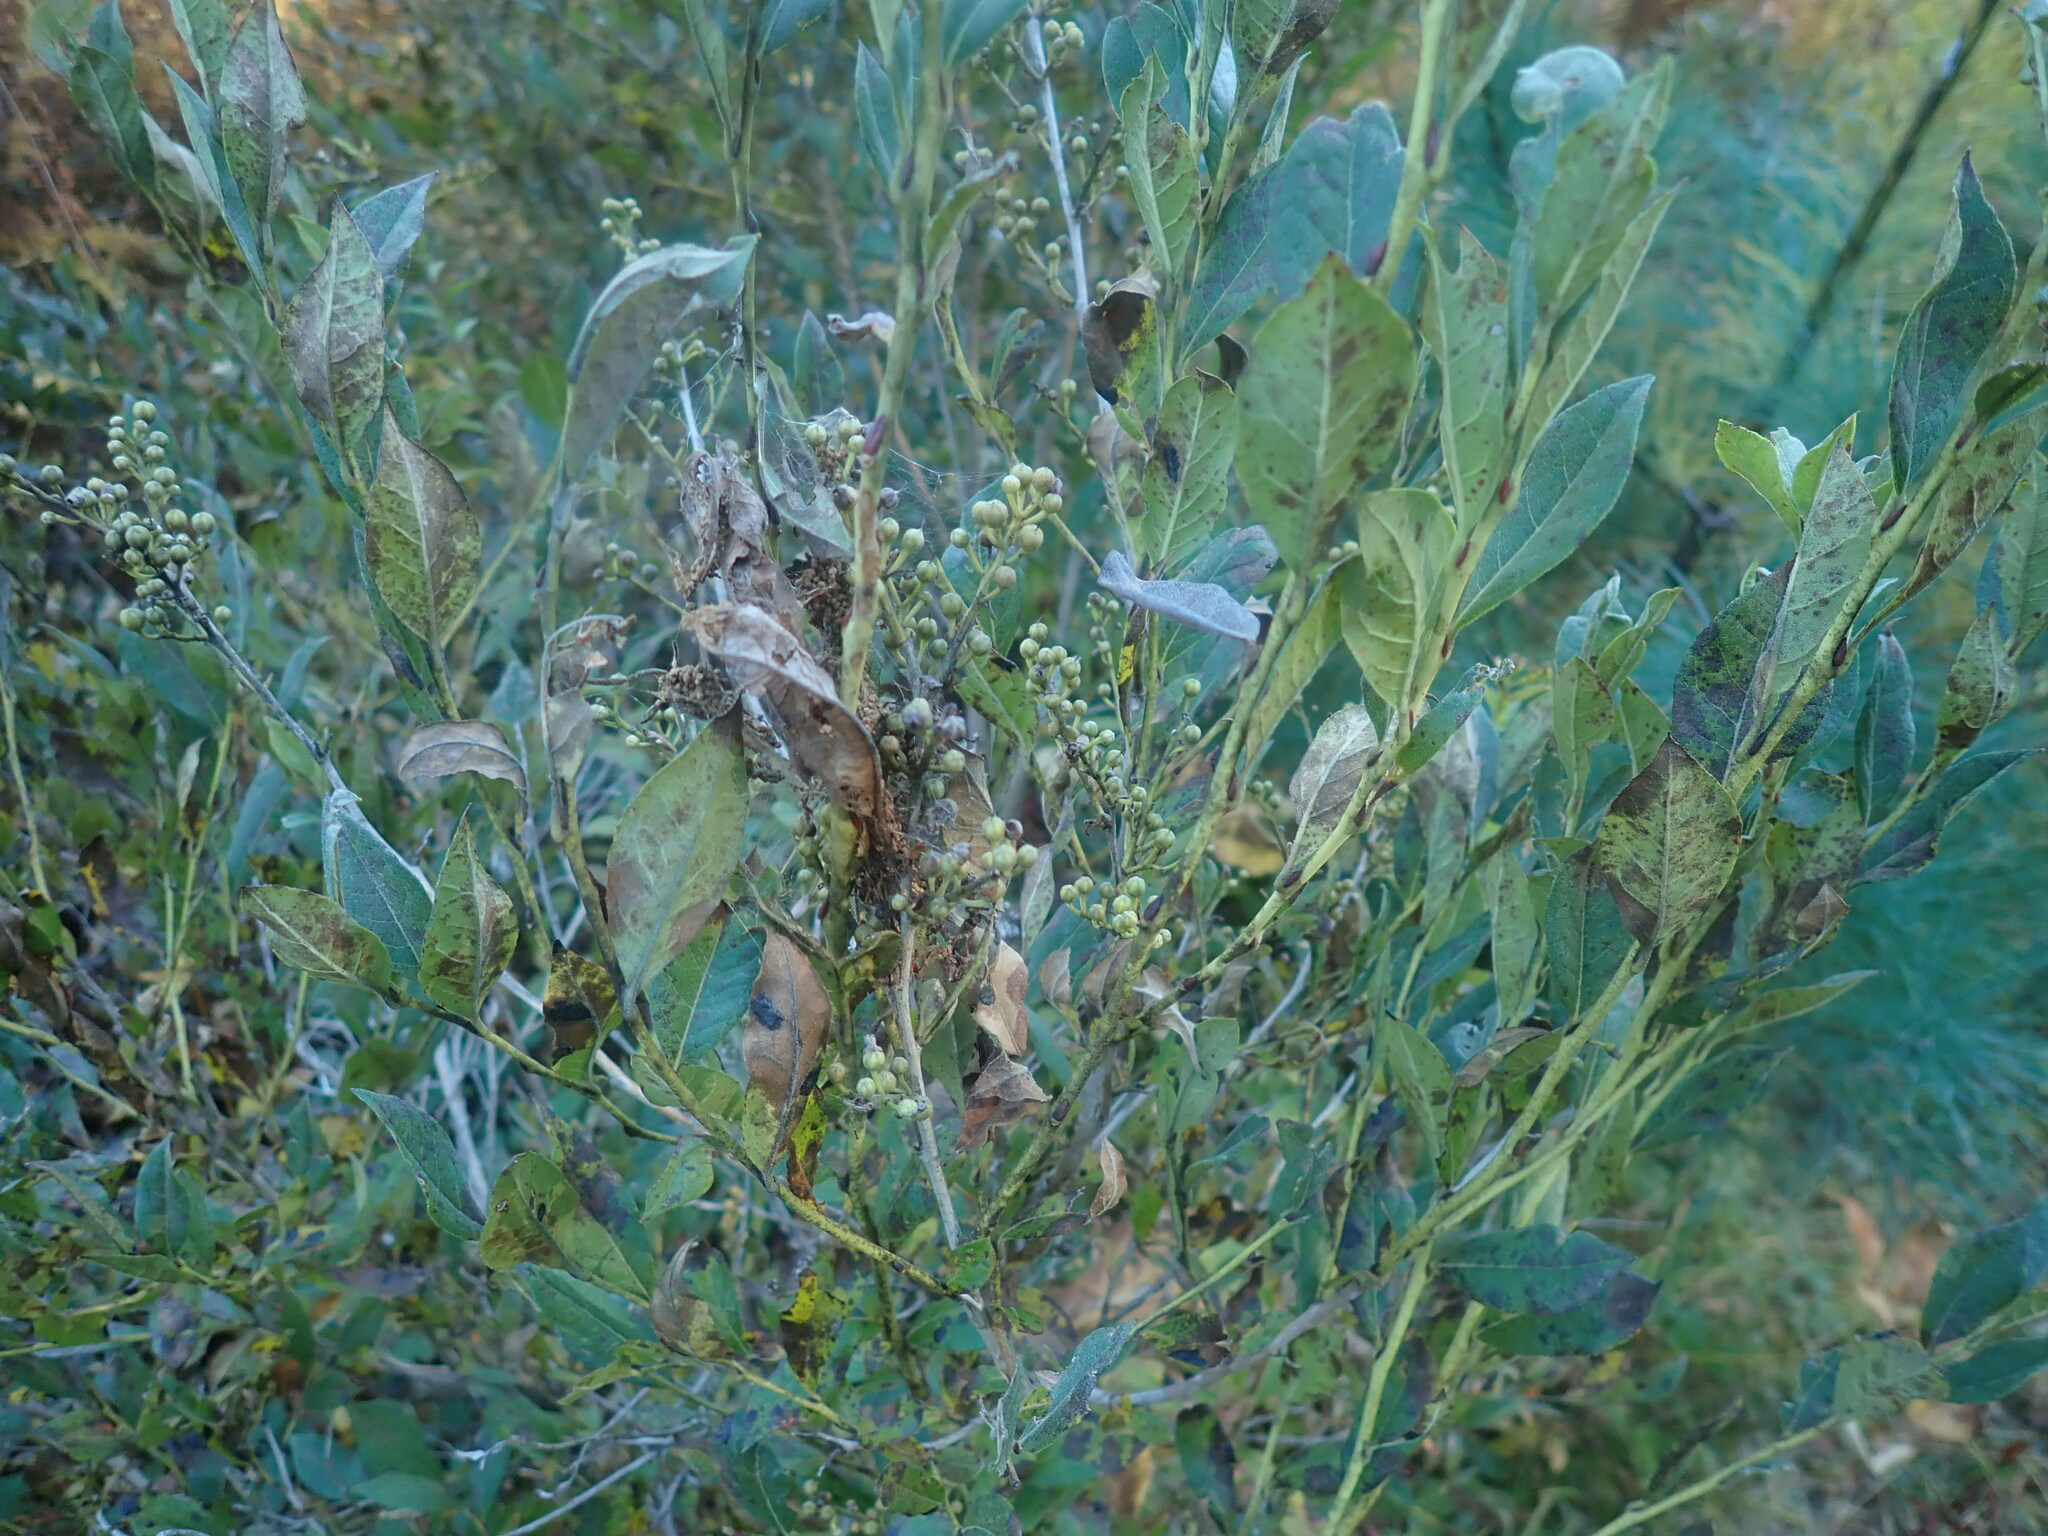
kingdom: Plantae
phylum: Tracheophyta
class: Magnoliopsida
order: Ericales
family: Ericaceae
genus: Lyonia
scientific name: Lyonia ligustrina
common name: Maleberry
